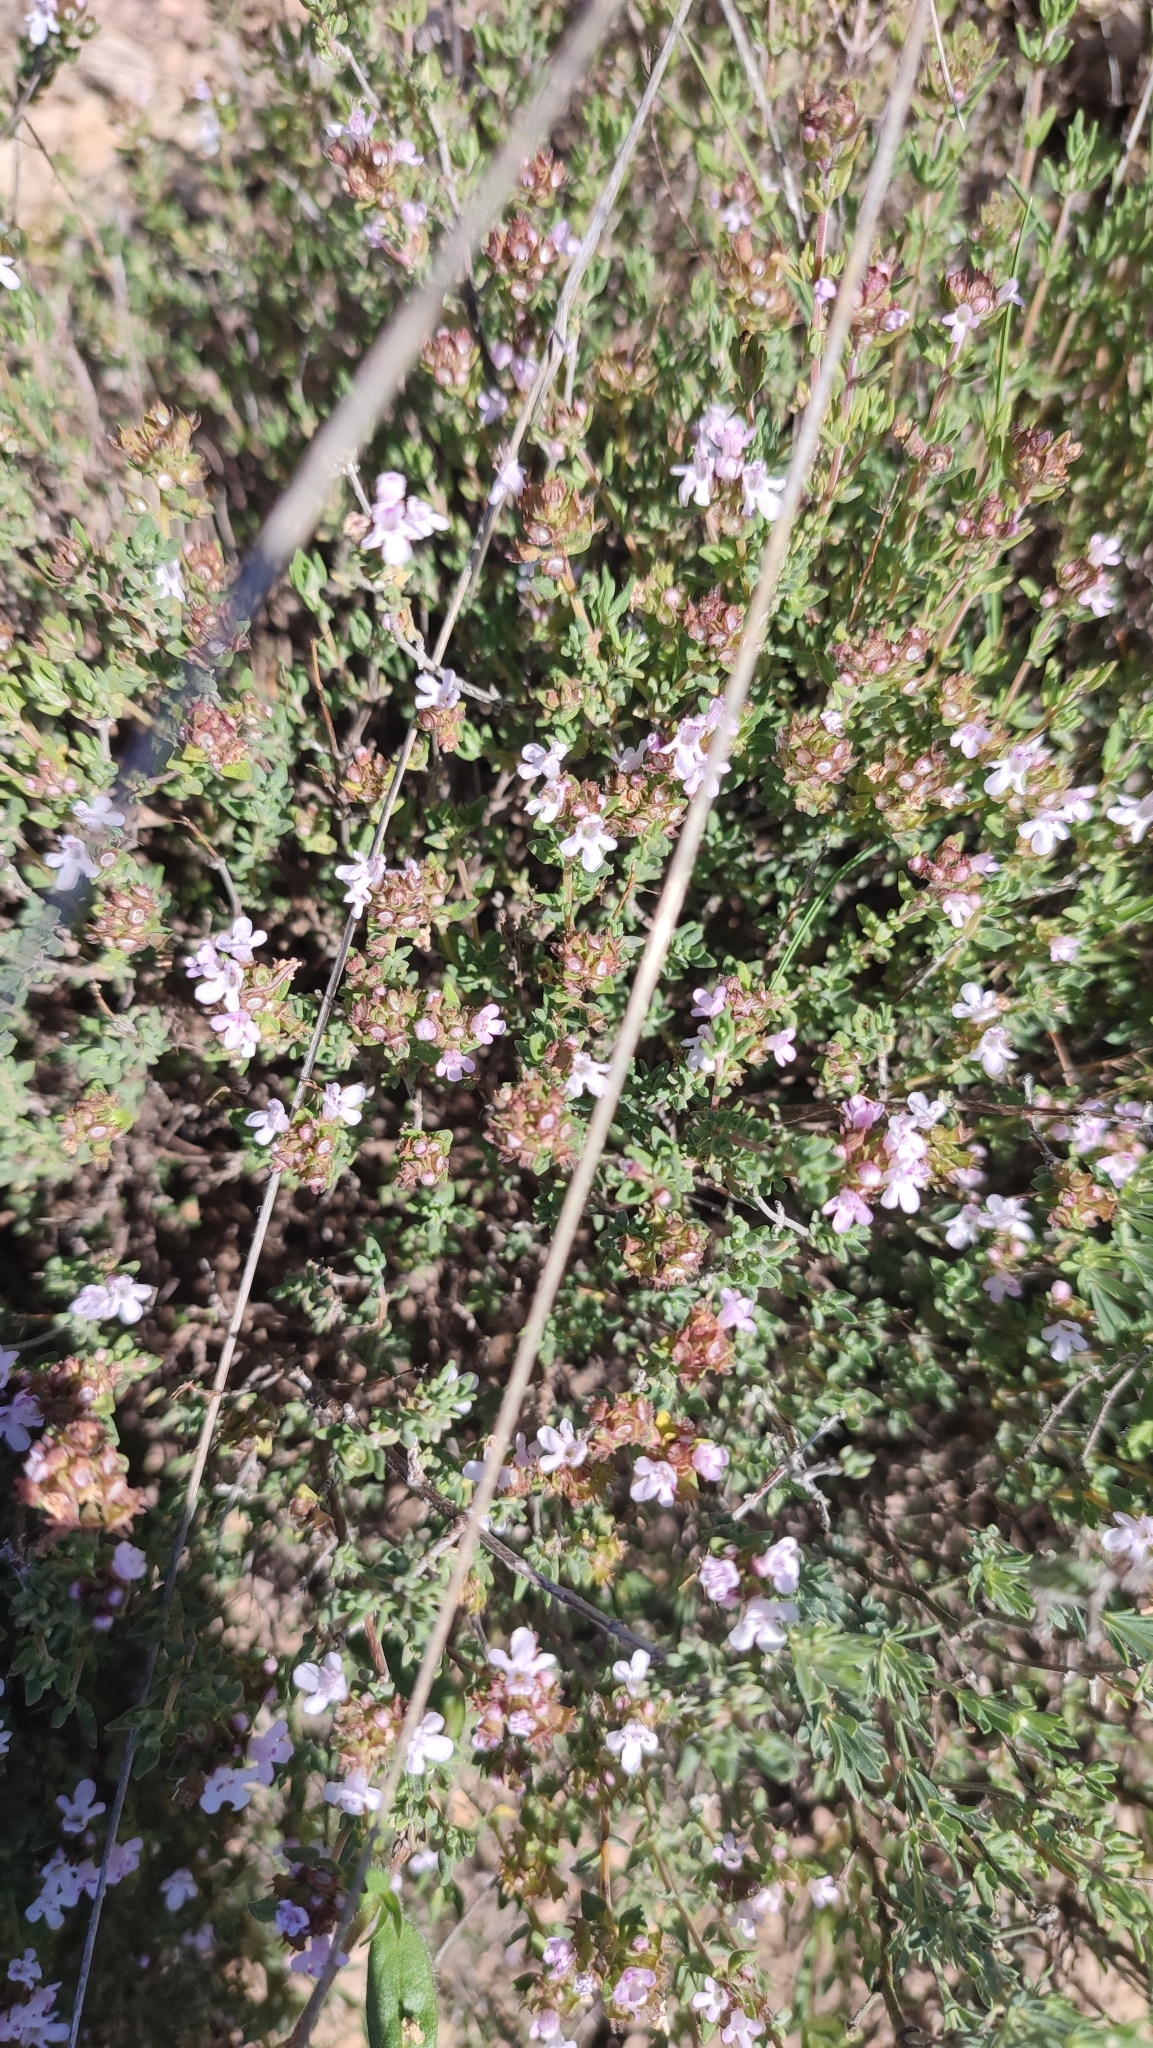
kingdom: Plantae
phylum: Tracheophyta
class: Magnoliopsida
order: Lamiales
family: Lamiaceae
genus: Thymus
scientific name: Thymus vulgaris
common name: Garden thyme
